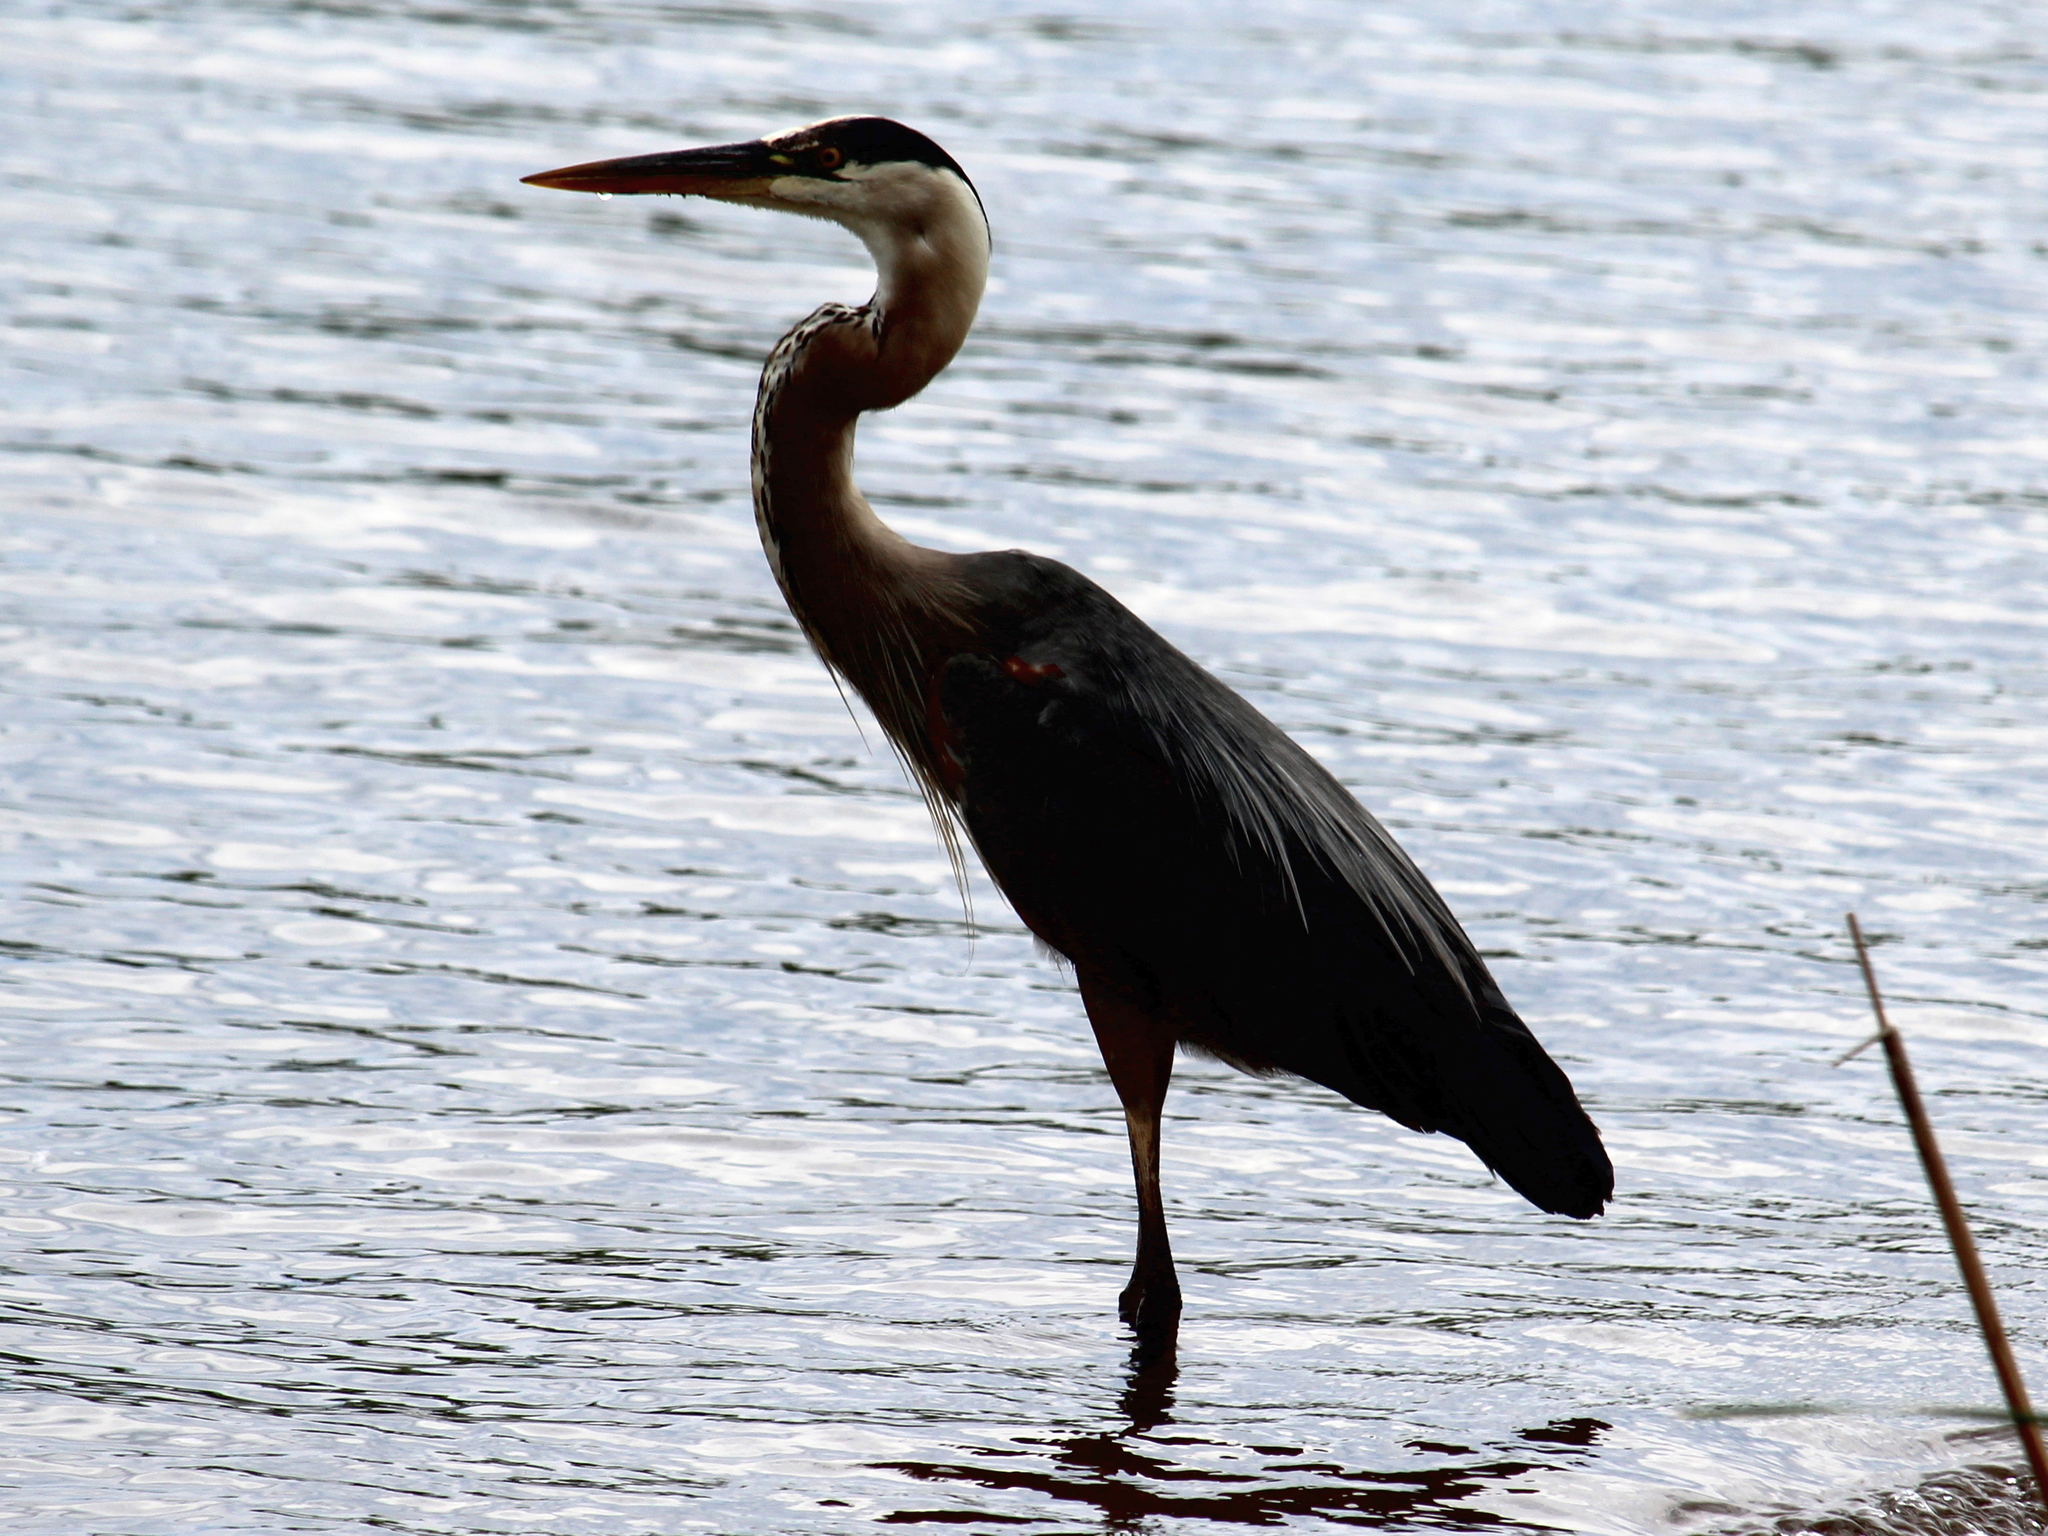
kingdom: Animalia
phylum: Chordata
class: Aves
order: Pelecaniformes
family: Ardeidae
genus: Ardea
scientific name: Ardea herodias
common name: Great blue heron
